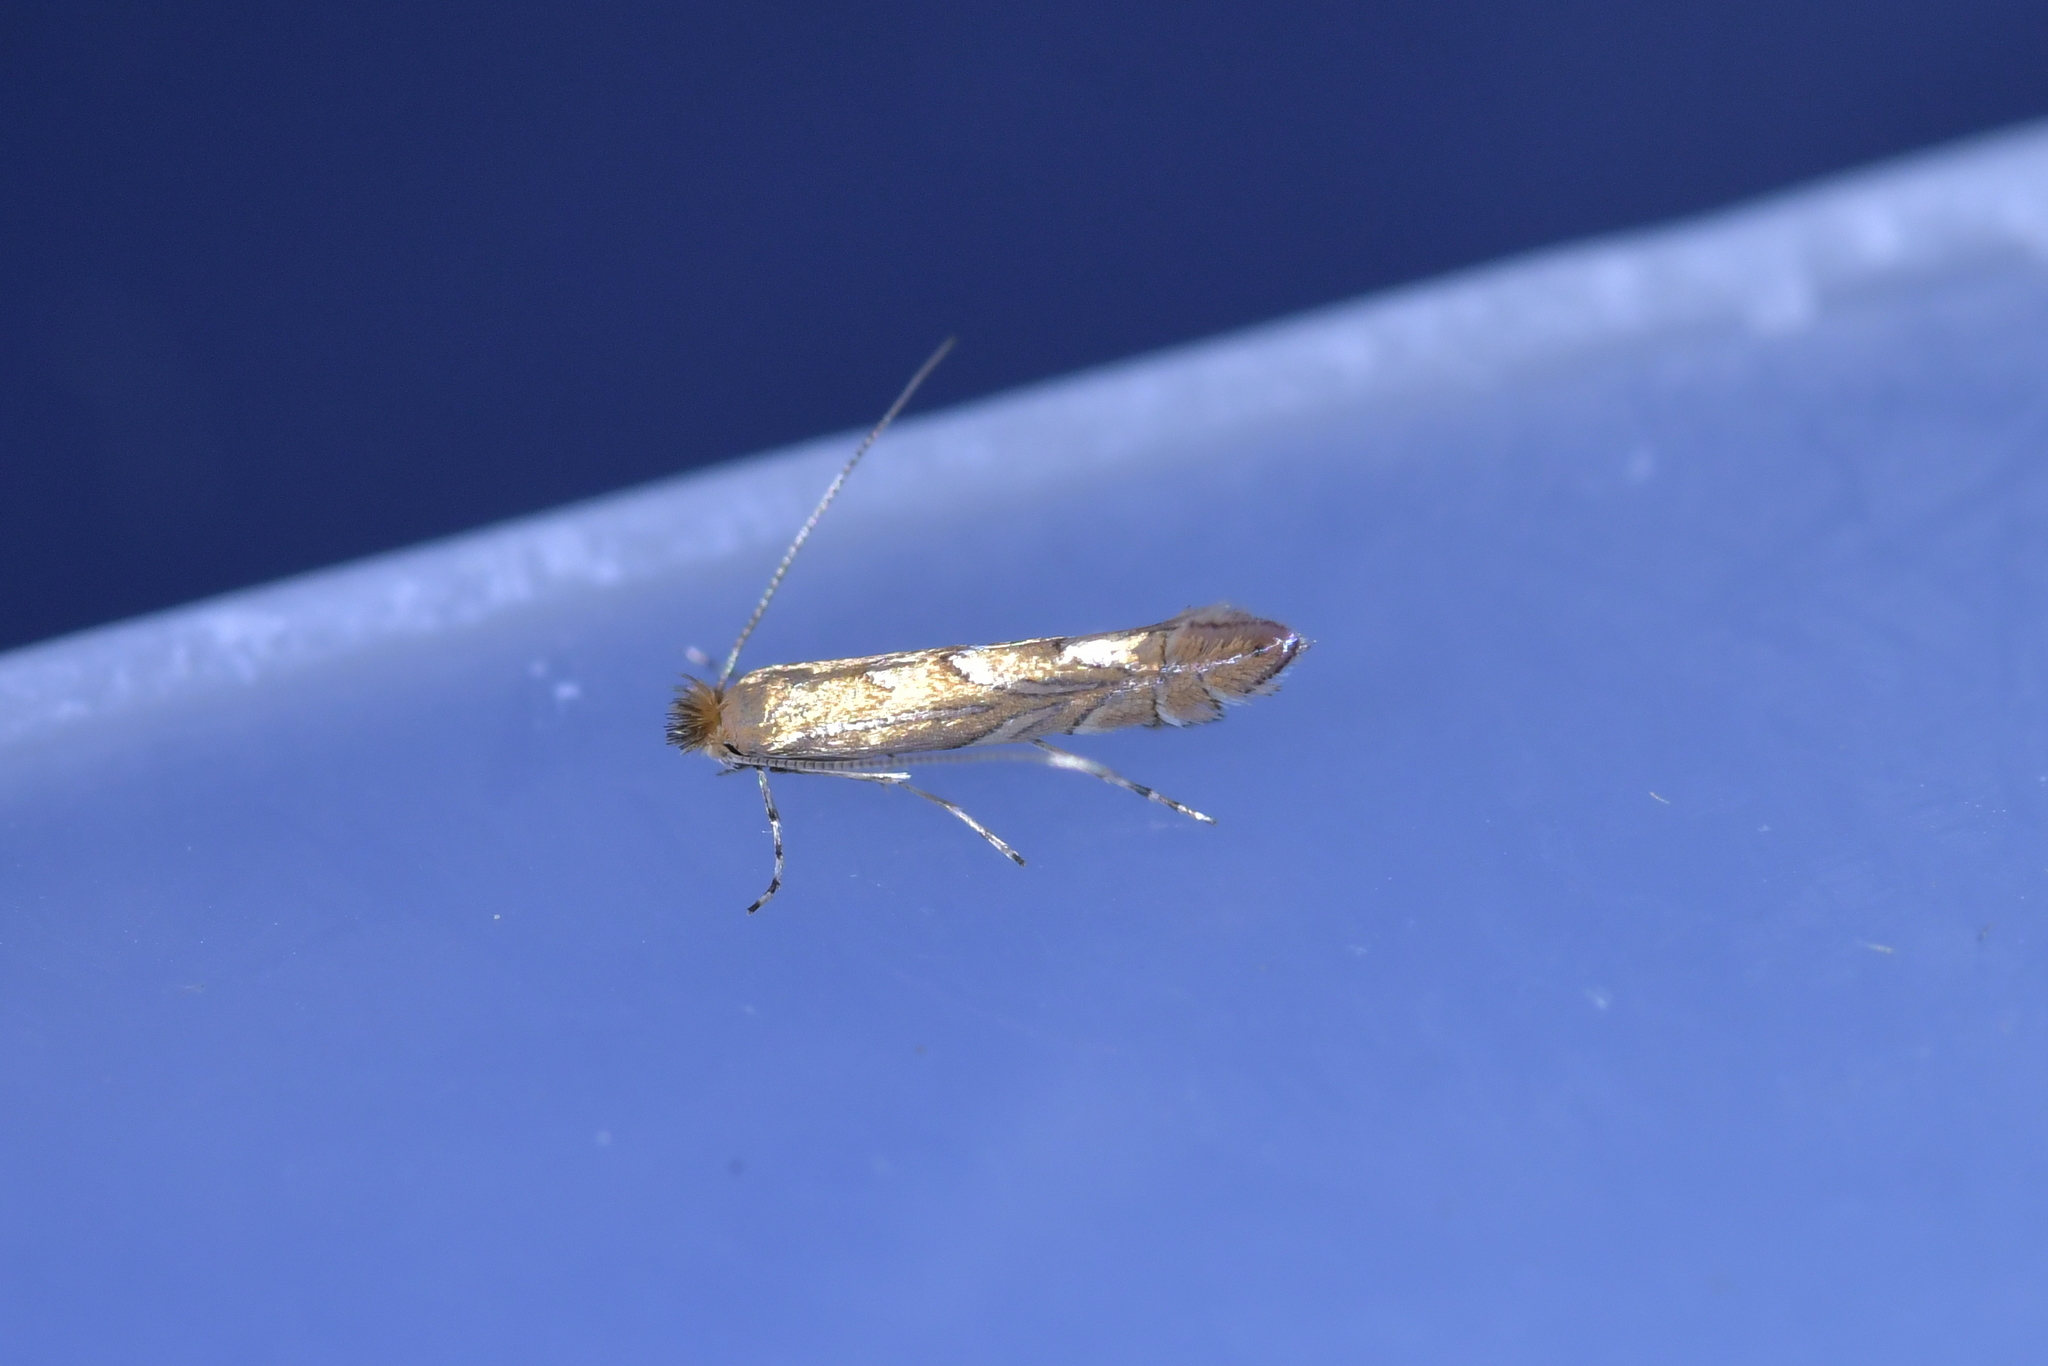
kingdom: Animalia
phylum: Arthropoda
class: Insecta
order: Lepidoptera
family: Gracillariidae
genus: Phyllonorycter
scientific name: Phyllonorycter messaniella
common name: Garden midget
